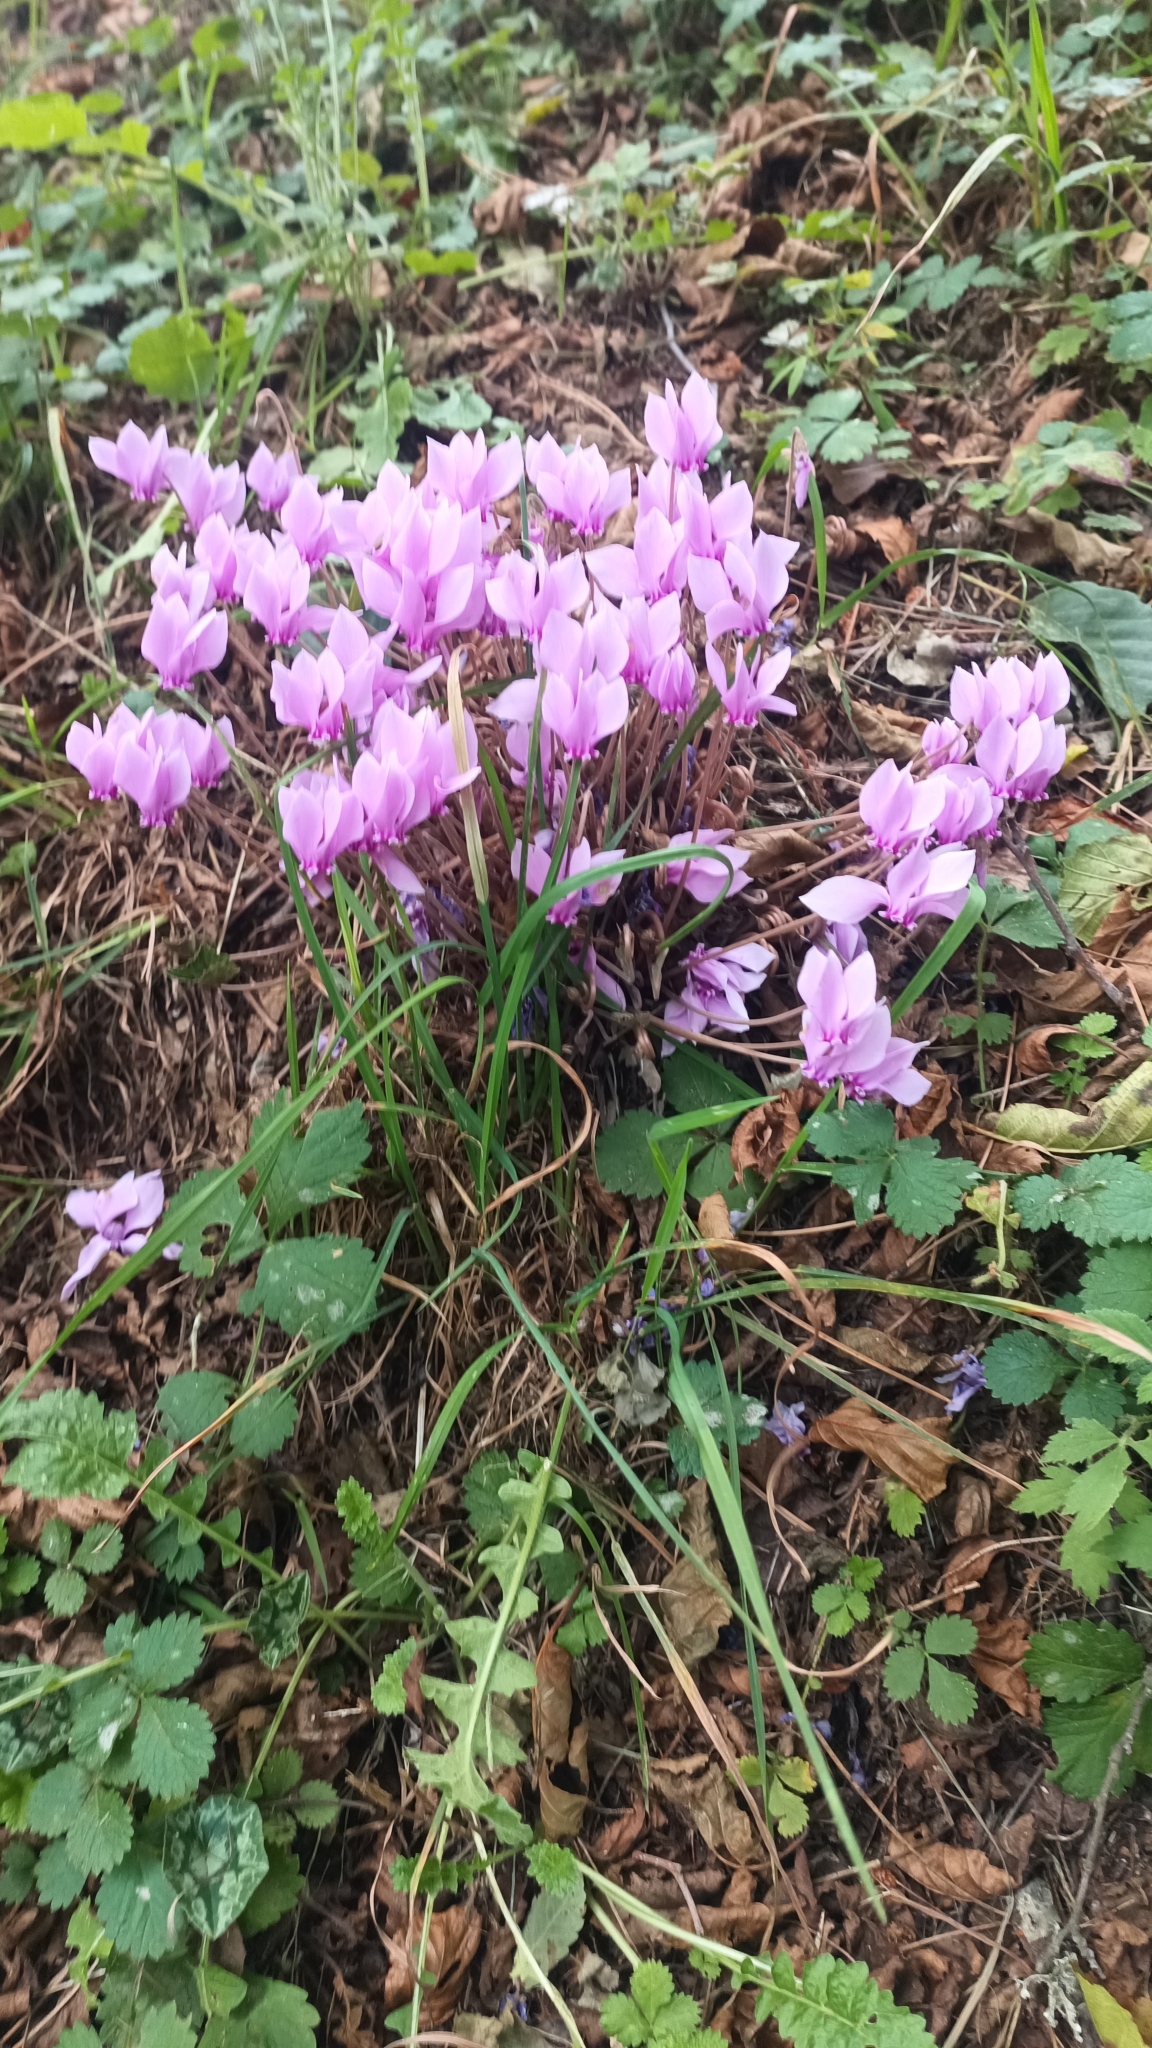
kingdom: Plantae
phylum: Tracheophyta
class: Magnoliopsida
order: Ericales
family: Primulaceae
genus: Cyclamen
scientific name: Cyclamen hederifolium
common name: Sowbread
